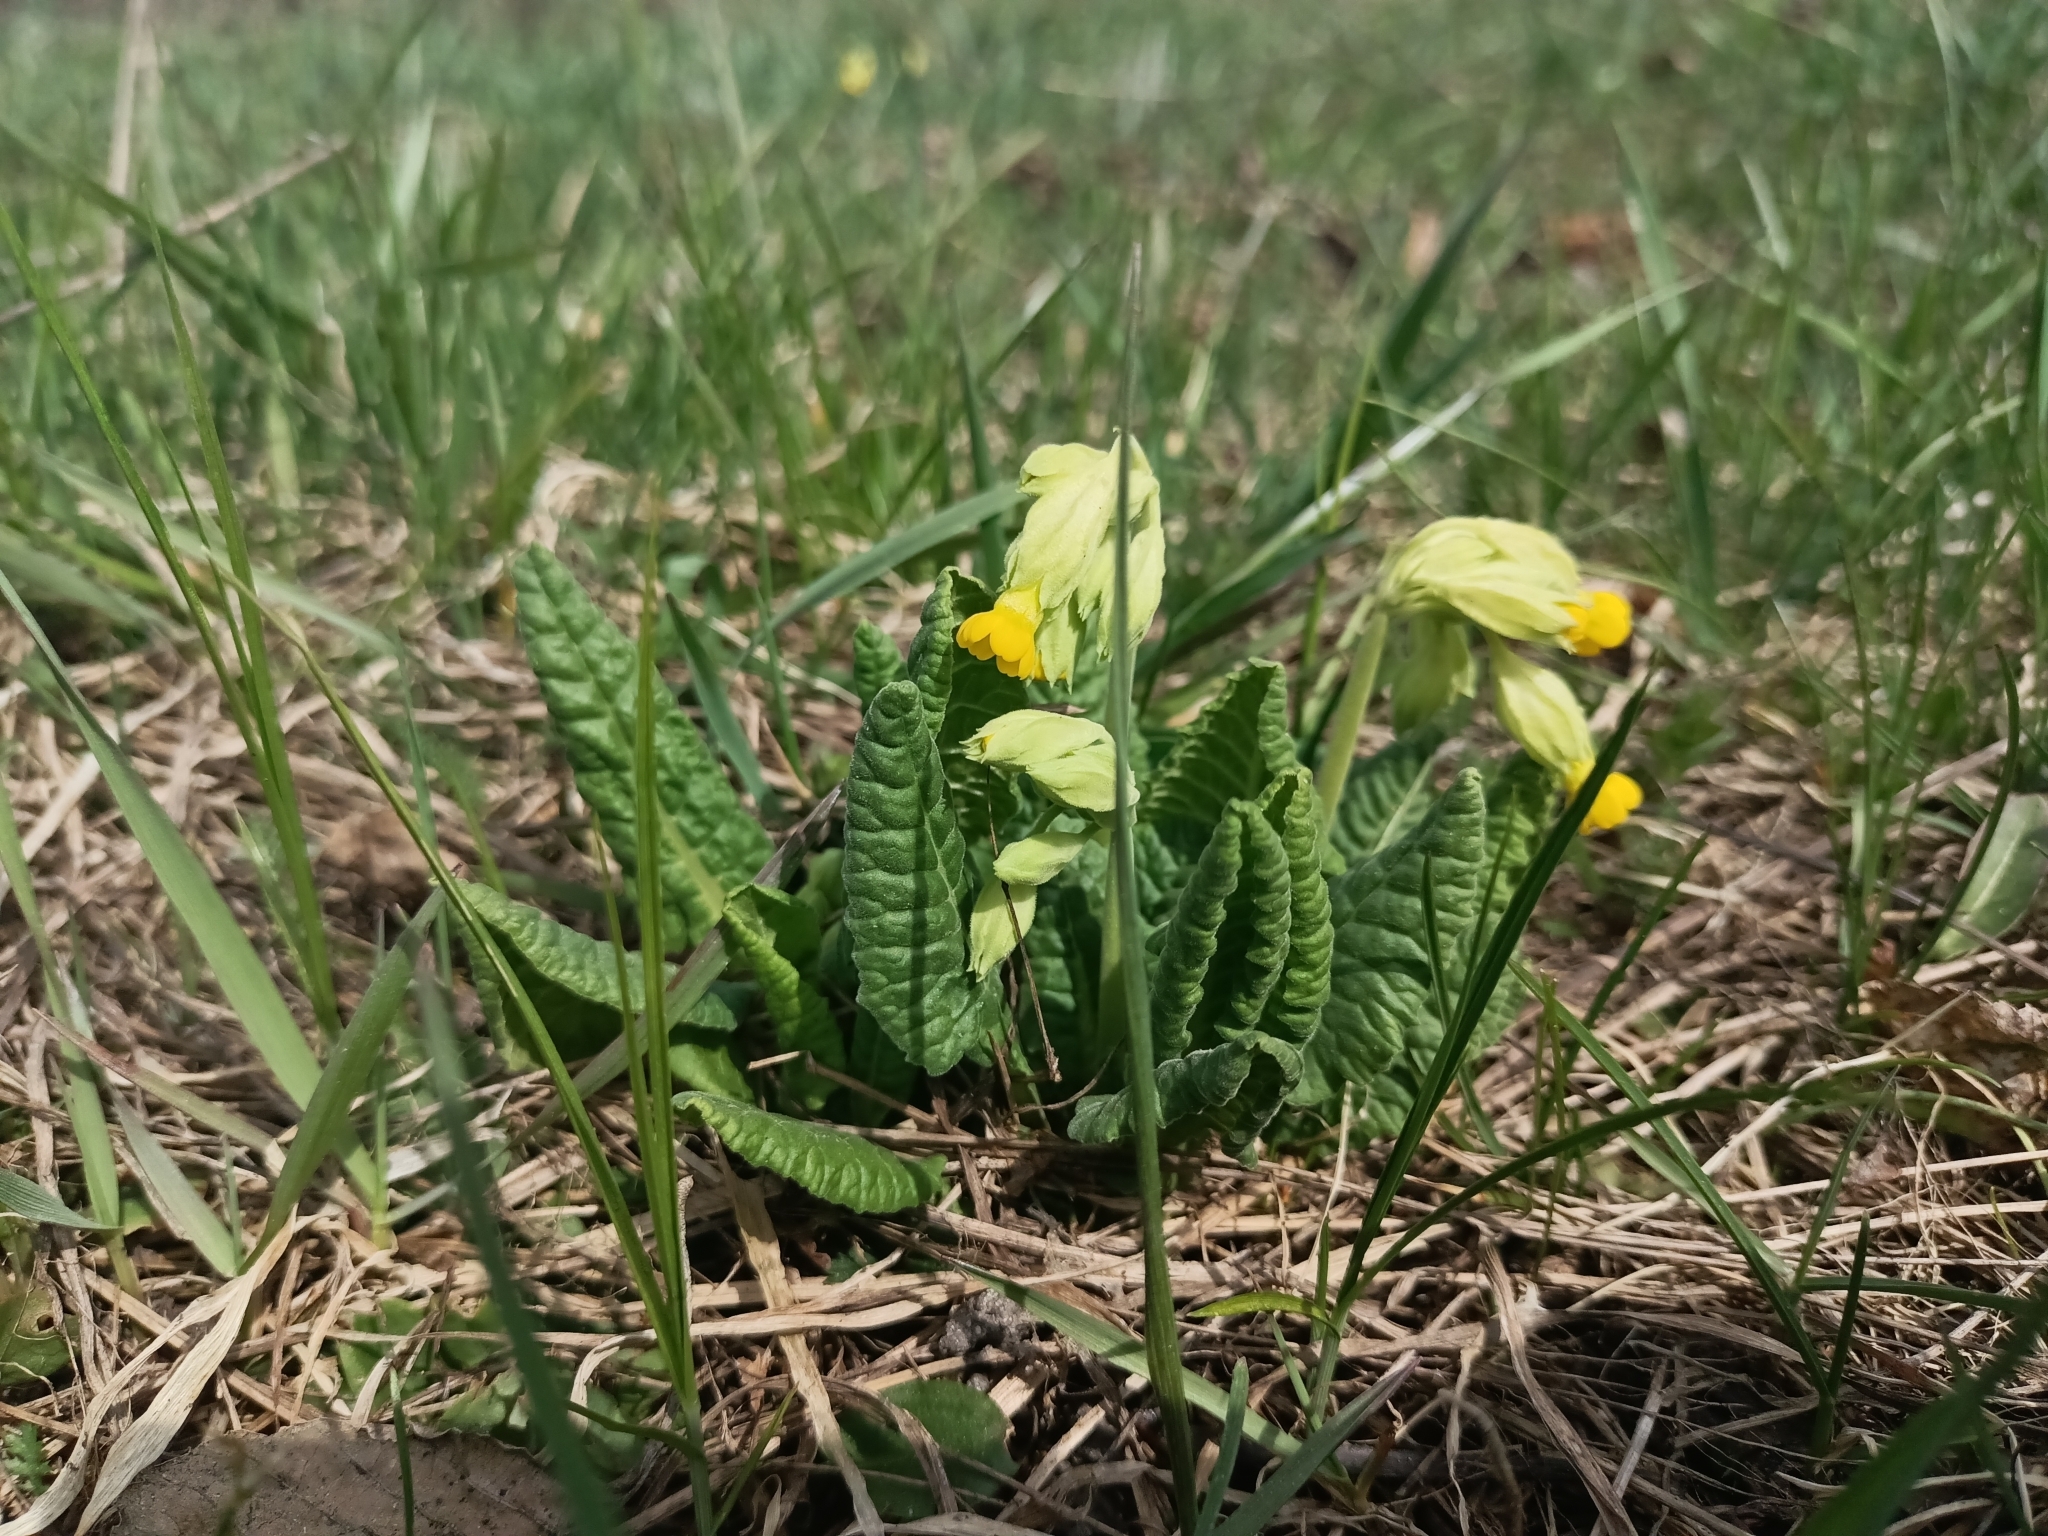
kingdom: Plantae
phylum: Tracheophyta
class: Magnoliopsida
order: Ericales
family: Primulaceae
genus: Primula
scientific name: Primula veris
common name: Cowslip
